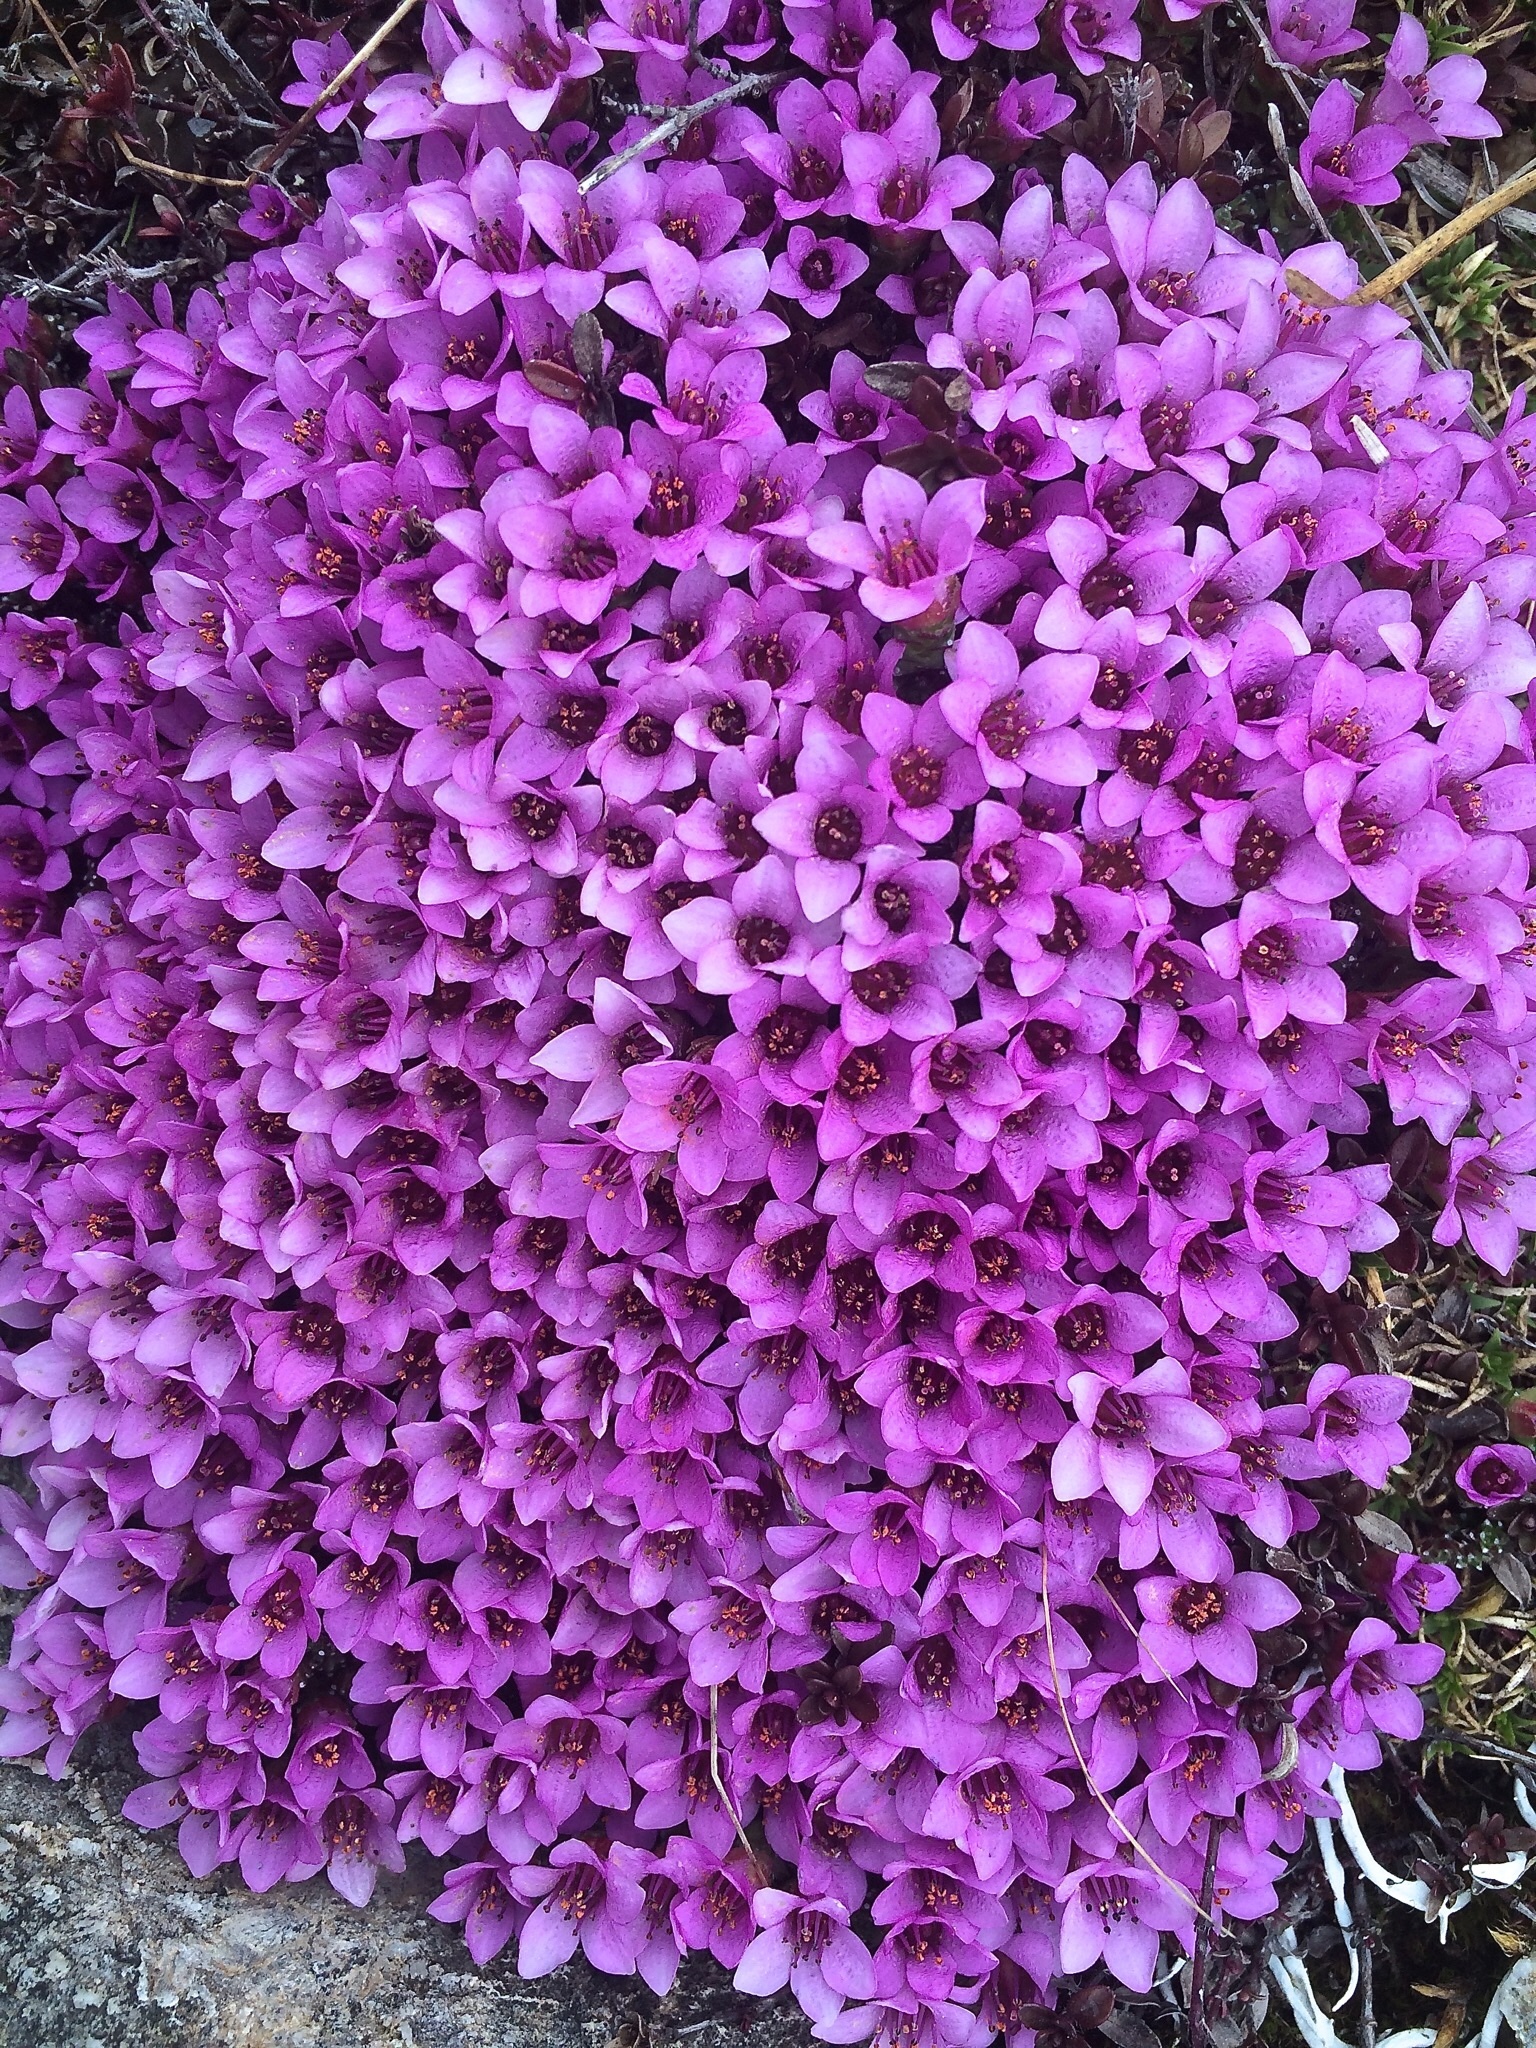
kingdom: Plantae
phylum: Tracheophyta
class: Magnoliopsida
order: Saxifragales
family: Saxifragaceae
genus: Saxifraga
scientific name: Saxifraga oppositifolia
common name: Purple saxifrage
